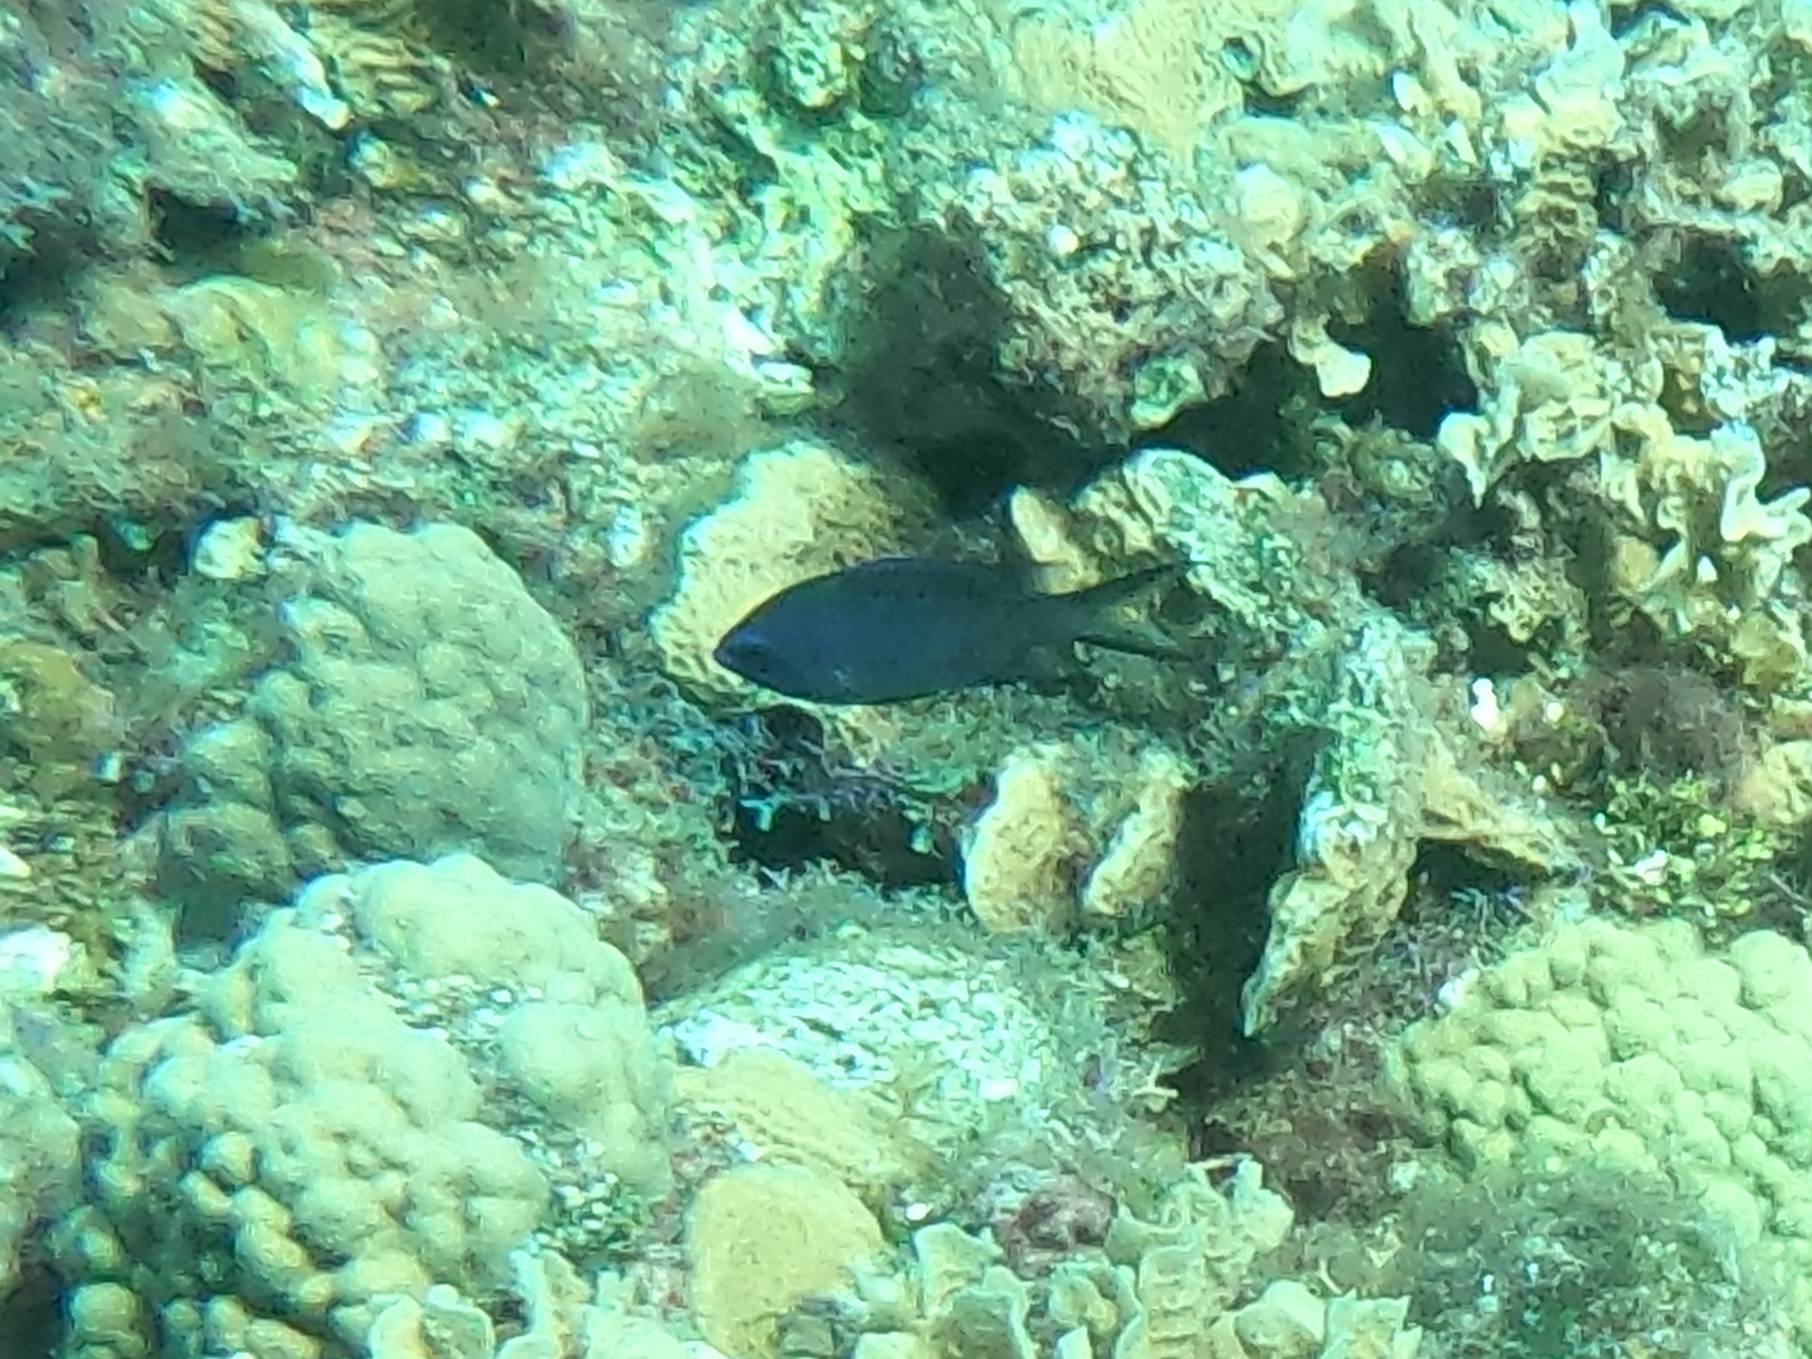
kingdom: Animalia
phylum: Chordata
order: Perciformes
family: Pomacentridae
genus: Chromis
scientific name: Chromis cyanea
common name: Blue chromis
